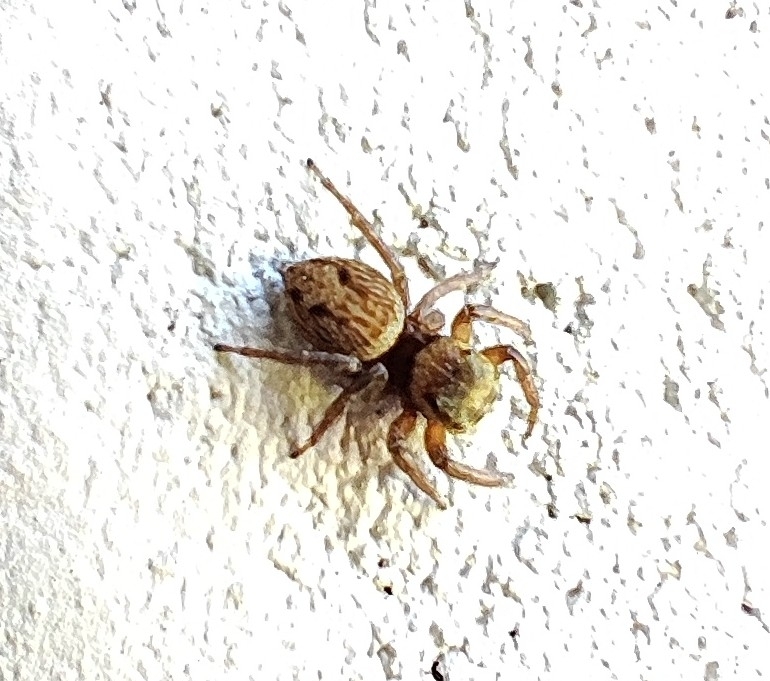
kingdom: Animalia
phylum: Arthropoda
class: Arachnida
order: Araneae
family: Salticidae
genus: Hasarius
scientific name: Hasarius adansoni
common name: Jumping spider
